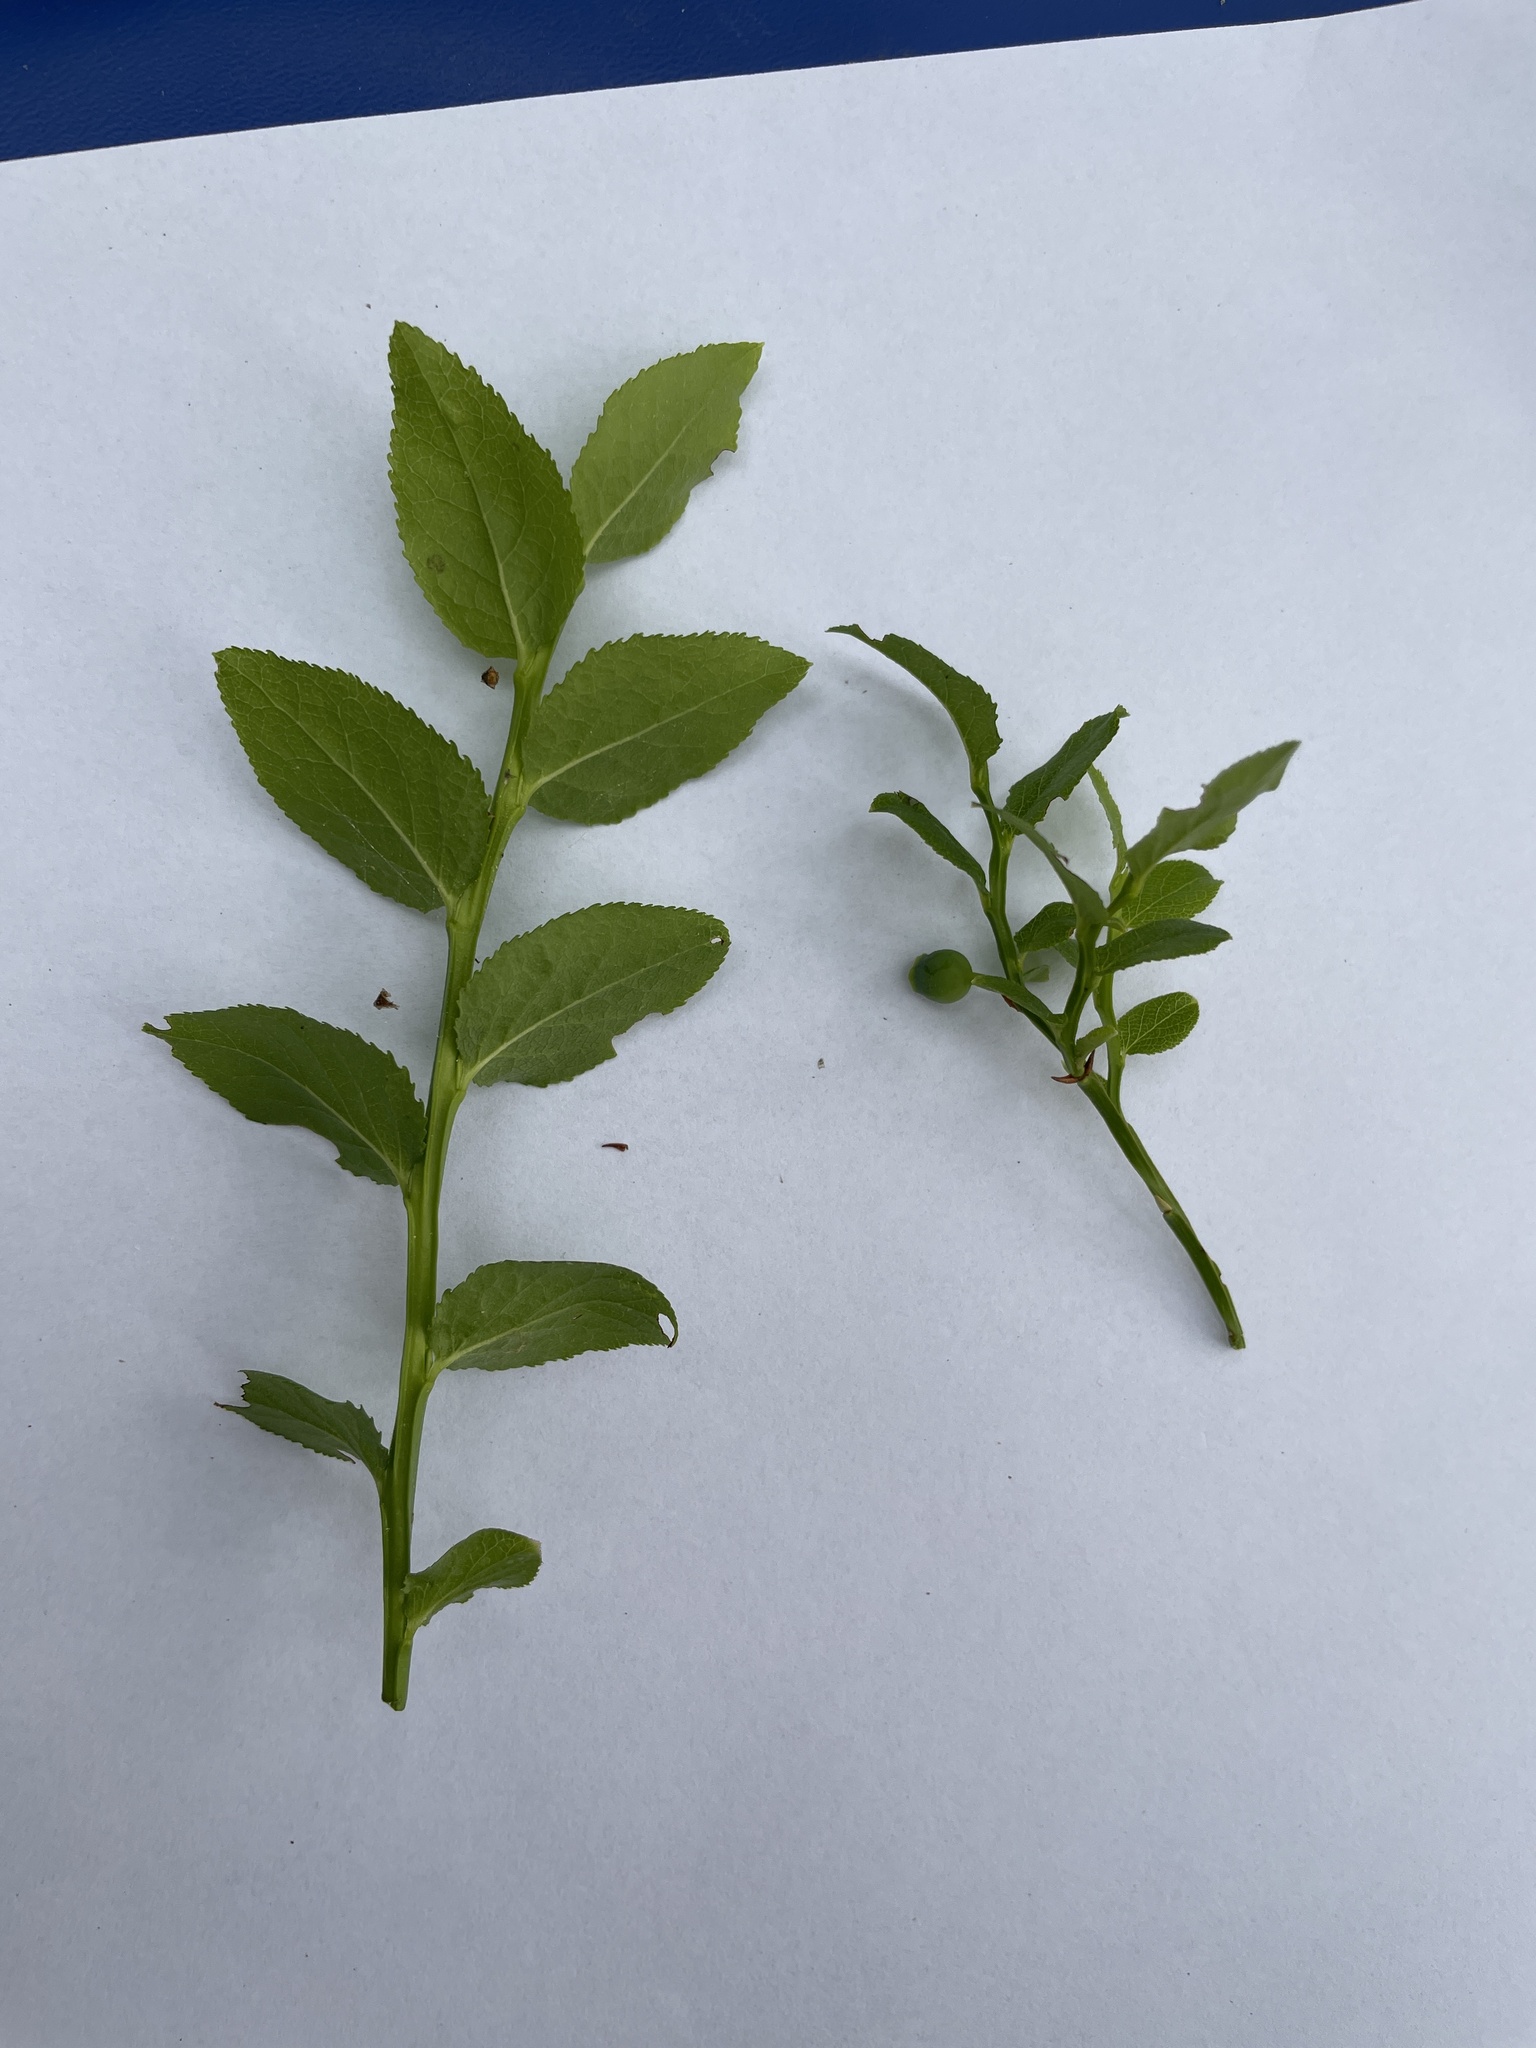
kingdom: Plantae
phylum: Tracheophyta
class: Magnoliopsida
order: Ericales
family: Ericaceae
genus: Vaccinium
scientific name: Vaccinium myrtillus
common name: Bilberry
